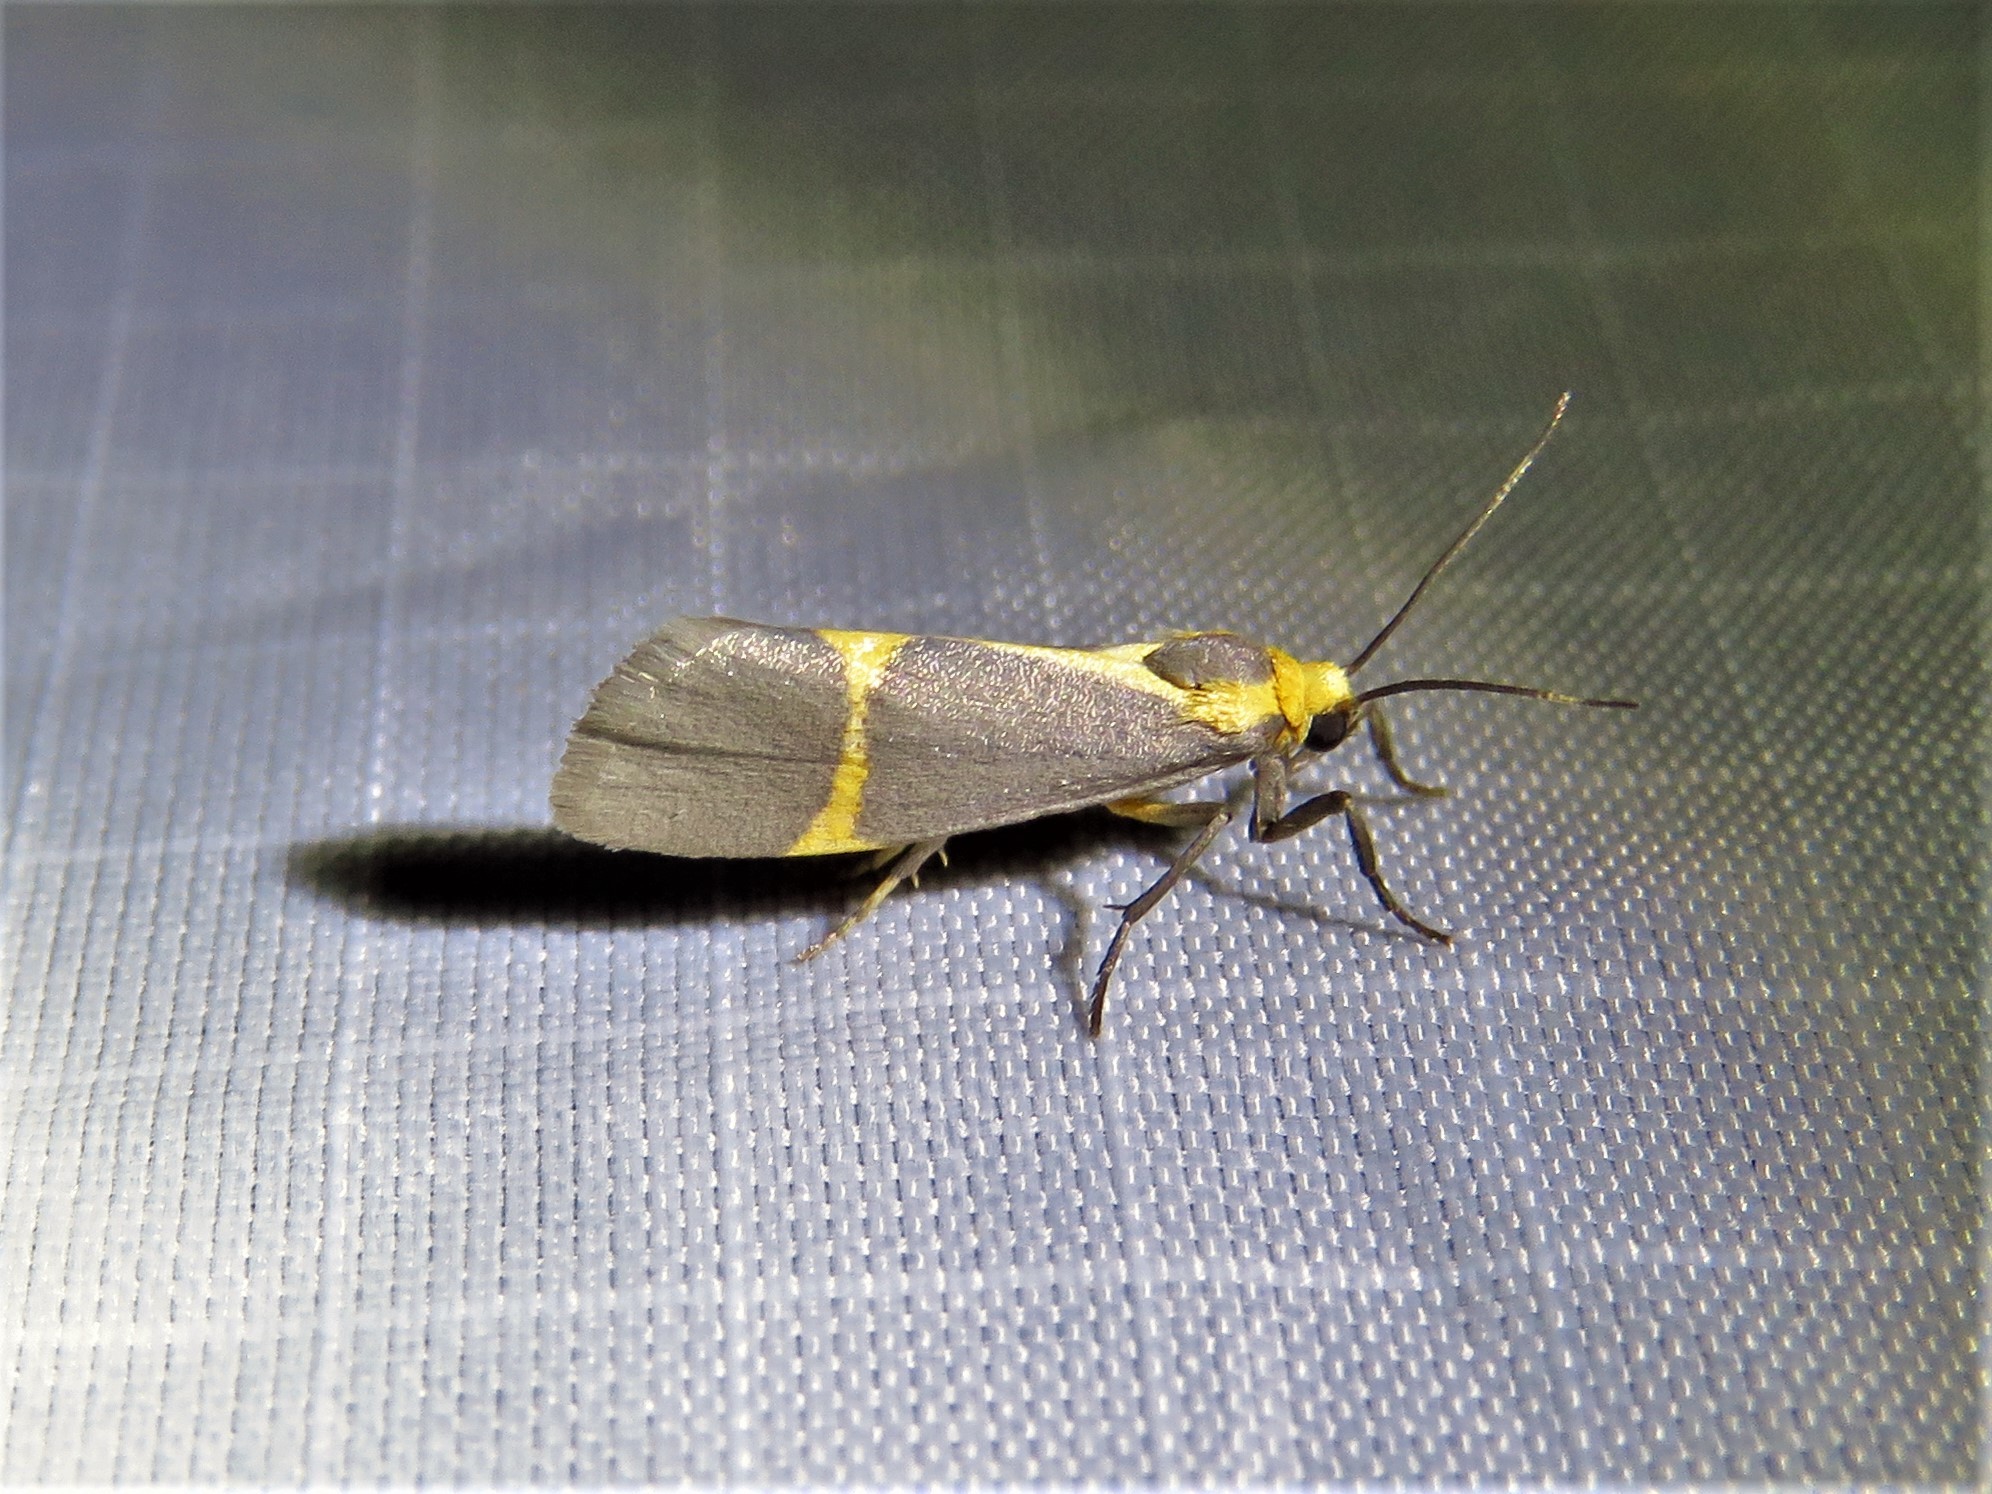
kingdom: Animalia
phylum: Arthropoda
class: Insecta
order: Lepidoptera
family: Erebidae
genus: Cisthene
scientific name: Cisthene tenuifascia
